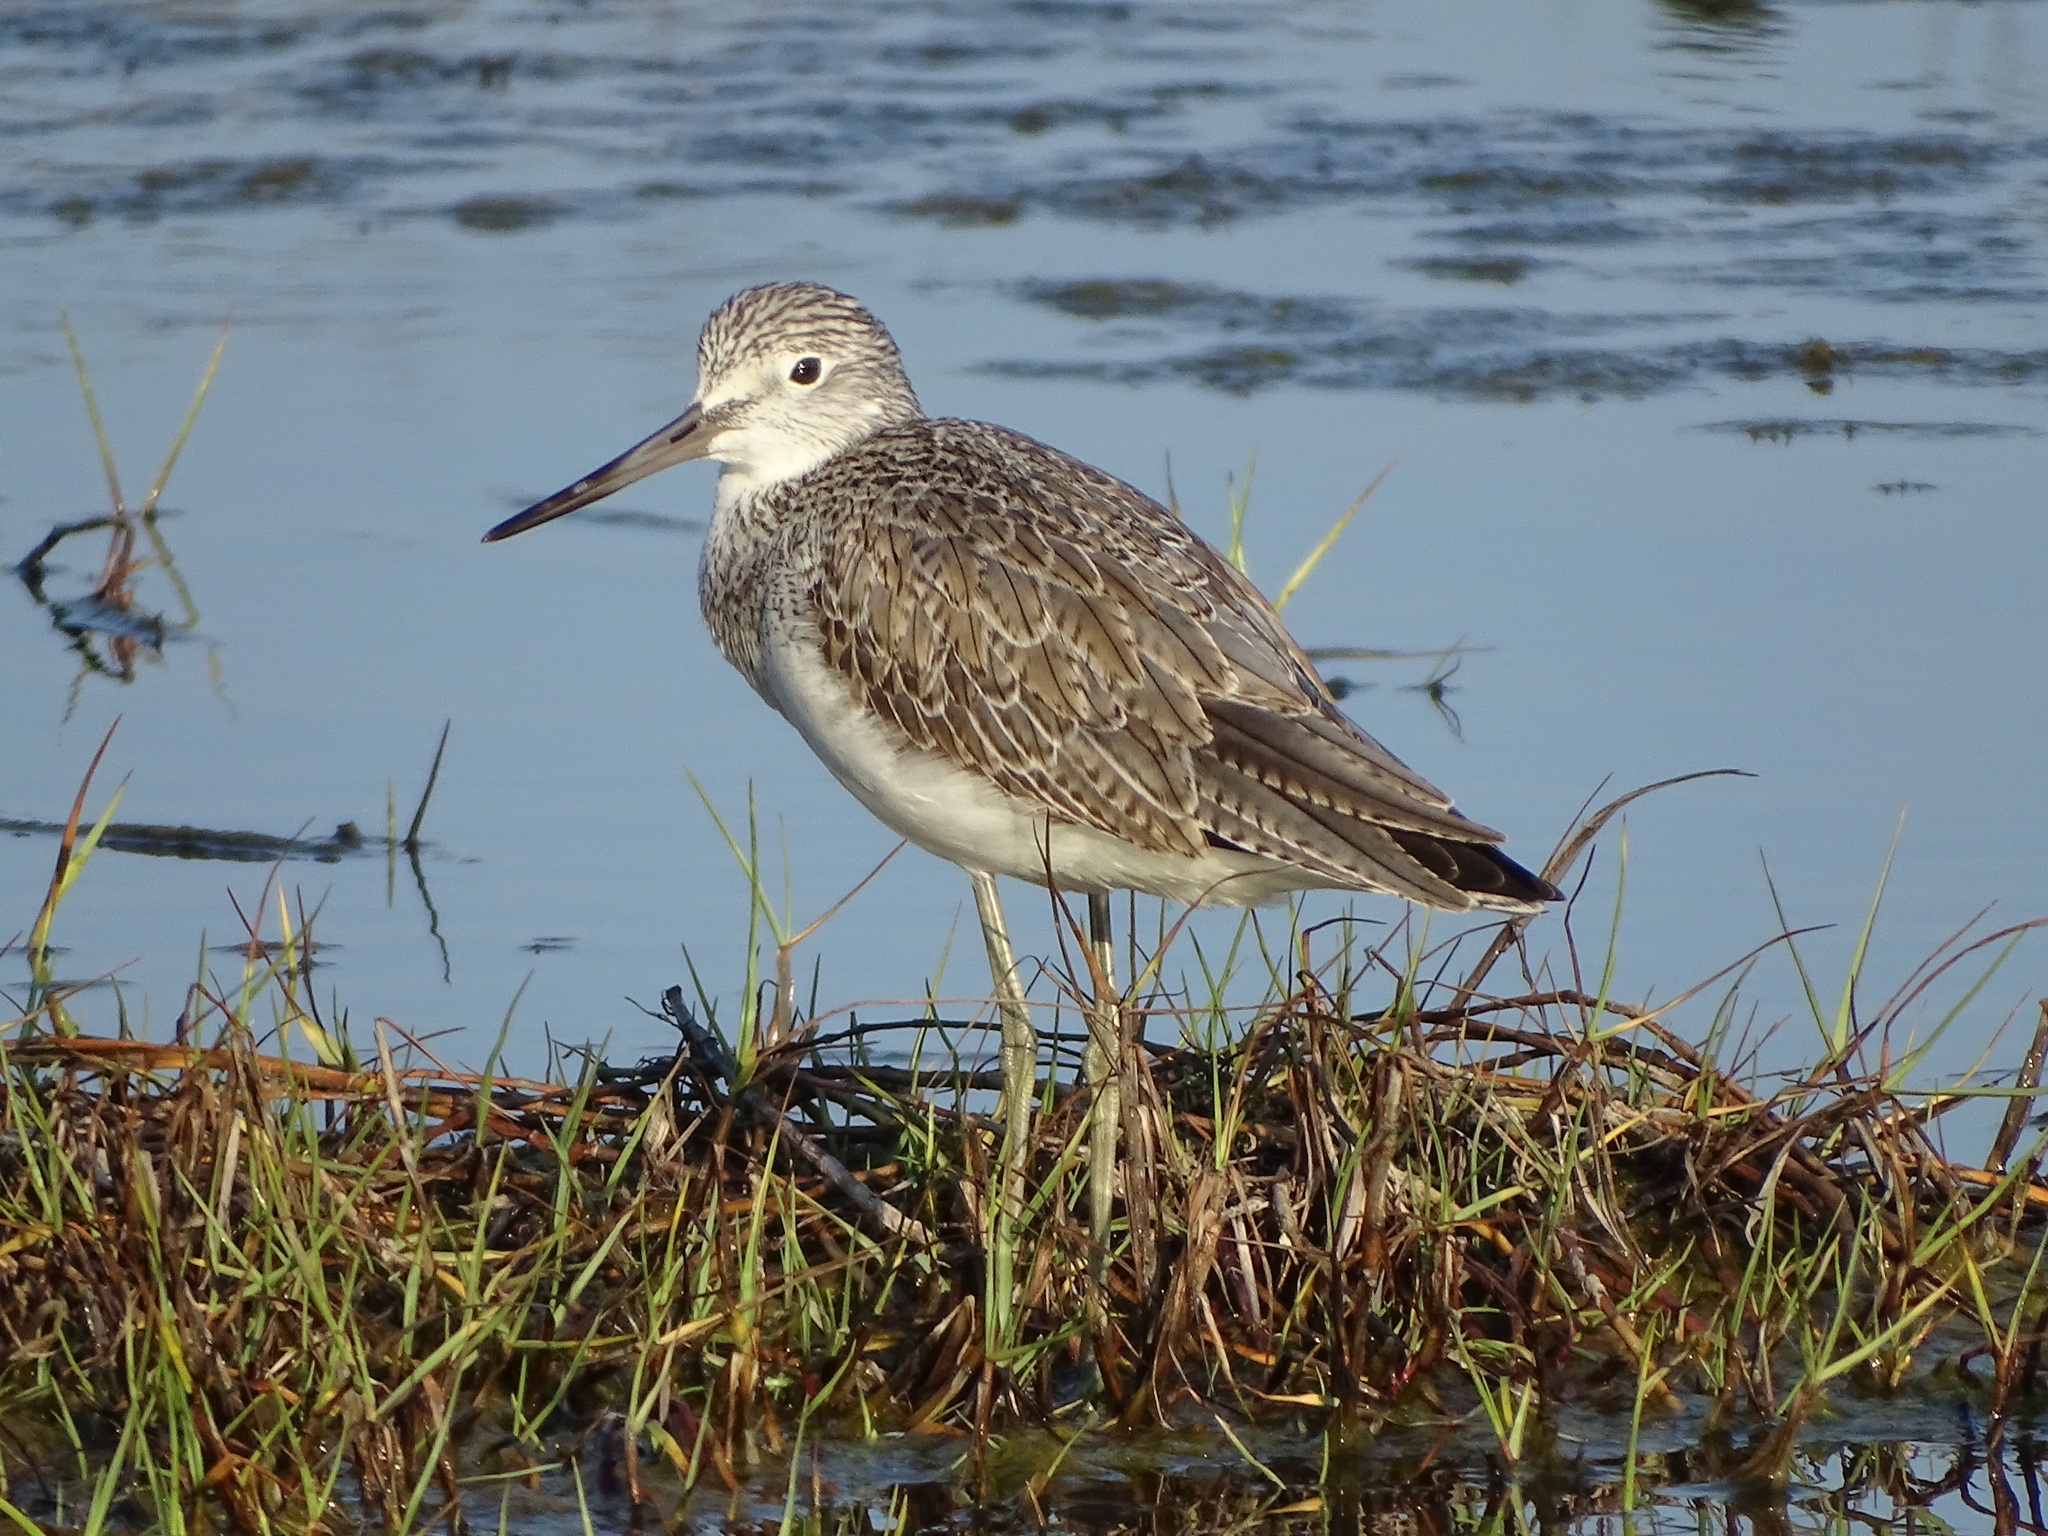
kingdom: Animalia
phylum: Chordata
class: Aves
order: Charadriiformes
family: Scolopacidae
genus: Tringa
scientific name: Tringa nebularia
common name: Common greenshank
